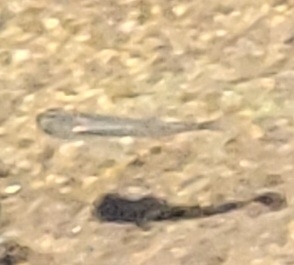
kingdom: Animalia
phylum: Chordata
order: Cyprinodontiformes
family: Poeciliidae
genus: Gambusia
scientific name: Gambusia affinis
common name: Mosquitofish
